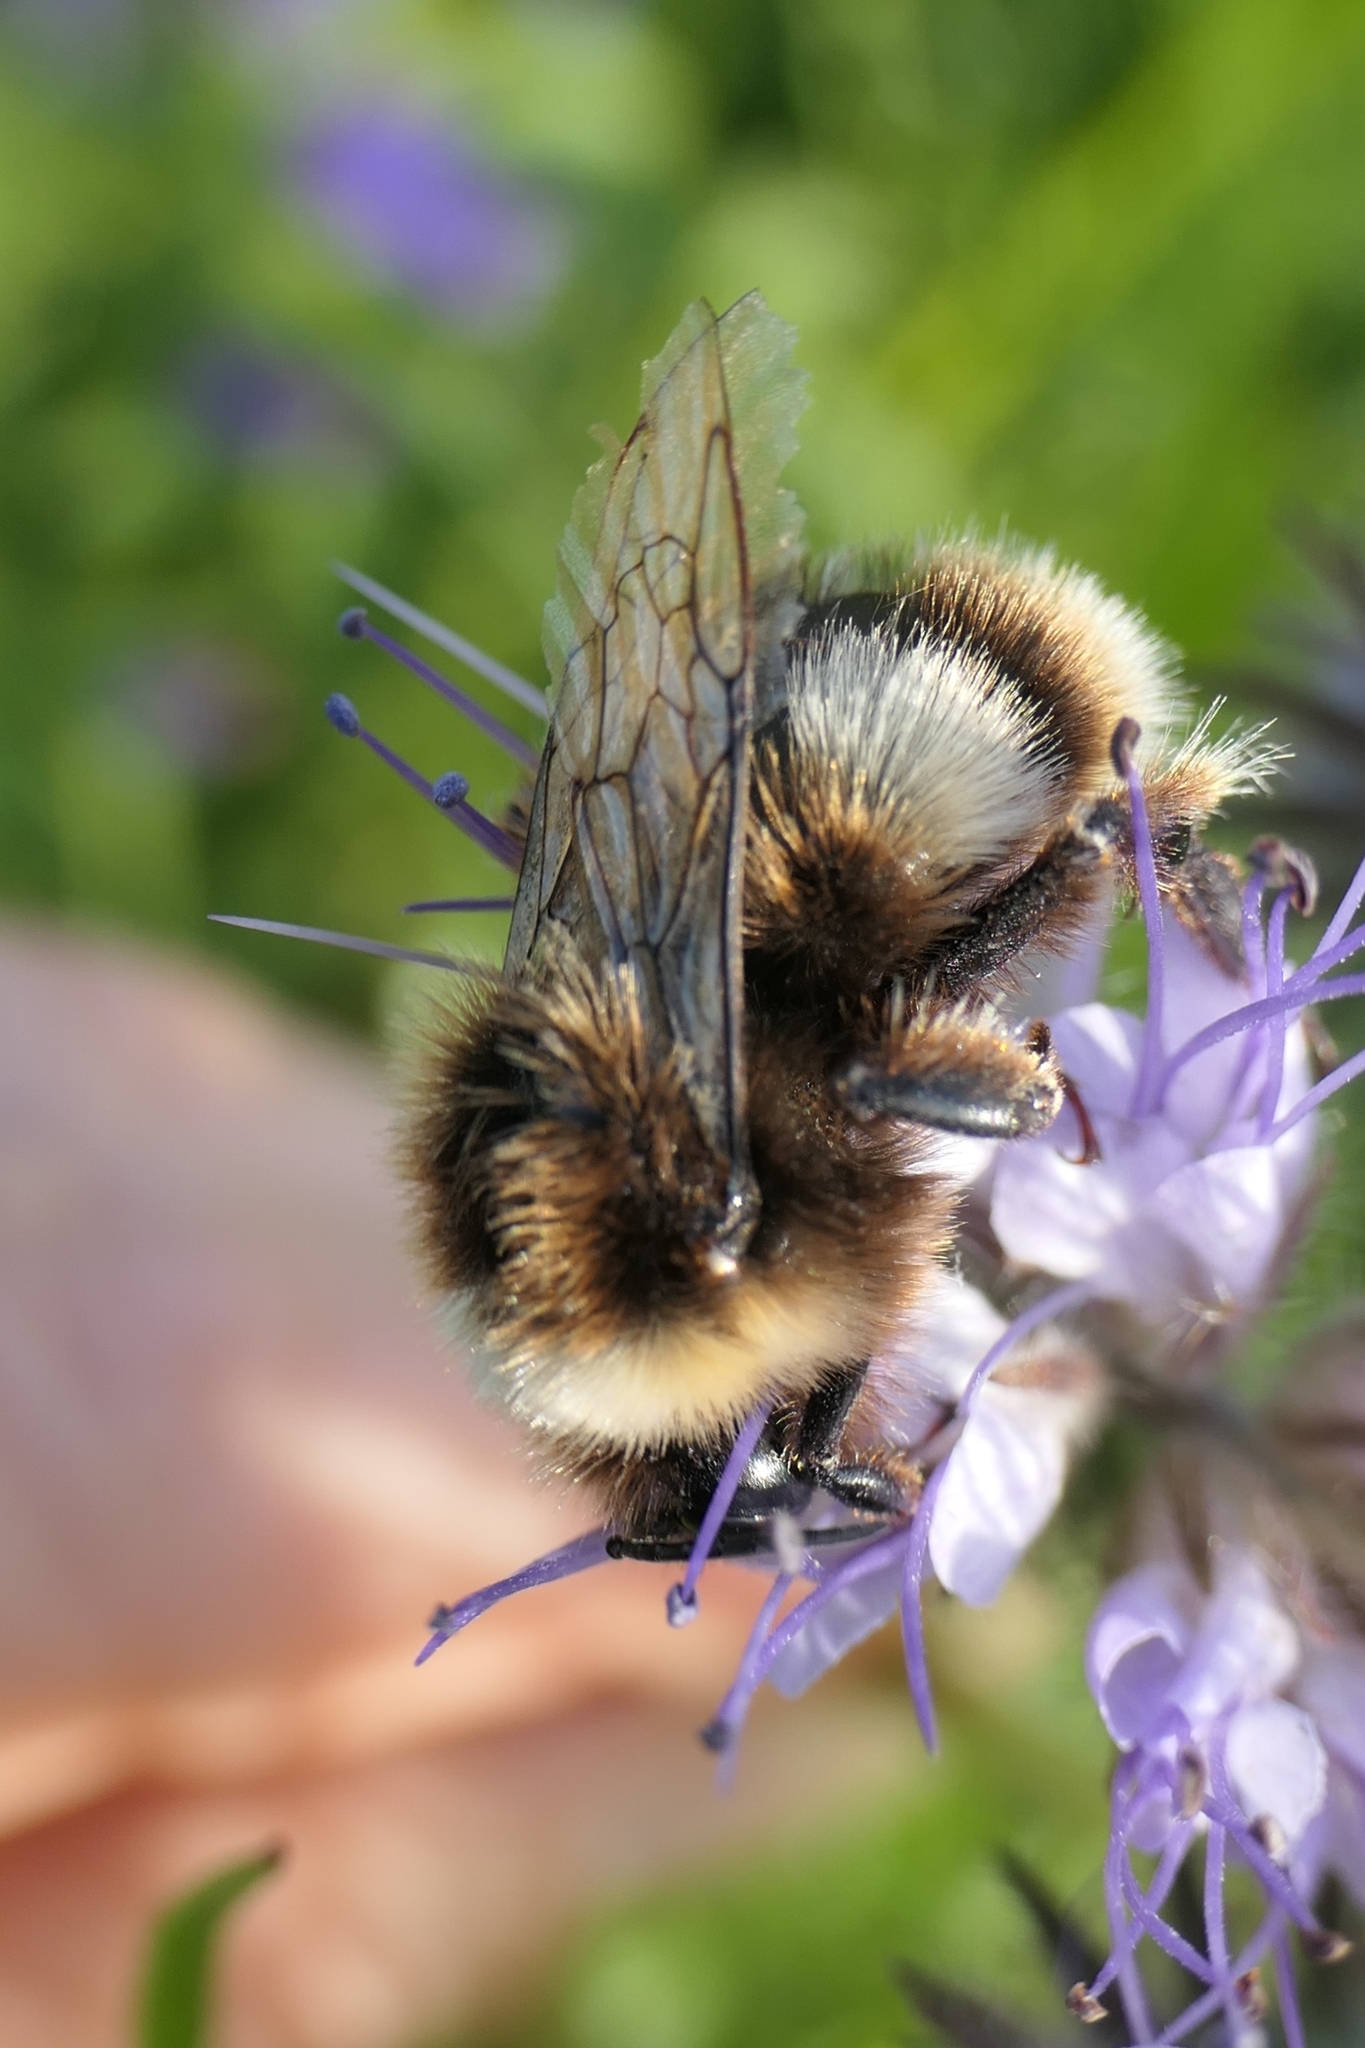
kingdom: Animalia
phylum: Arthropoda
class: Insecta
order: Hymenoptera
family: Apidae
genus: Bombus
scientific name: Bombus terrestris
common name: Buff-tailed bumblebee
